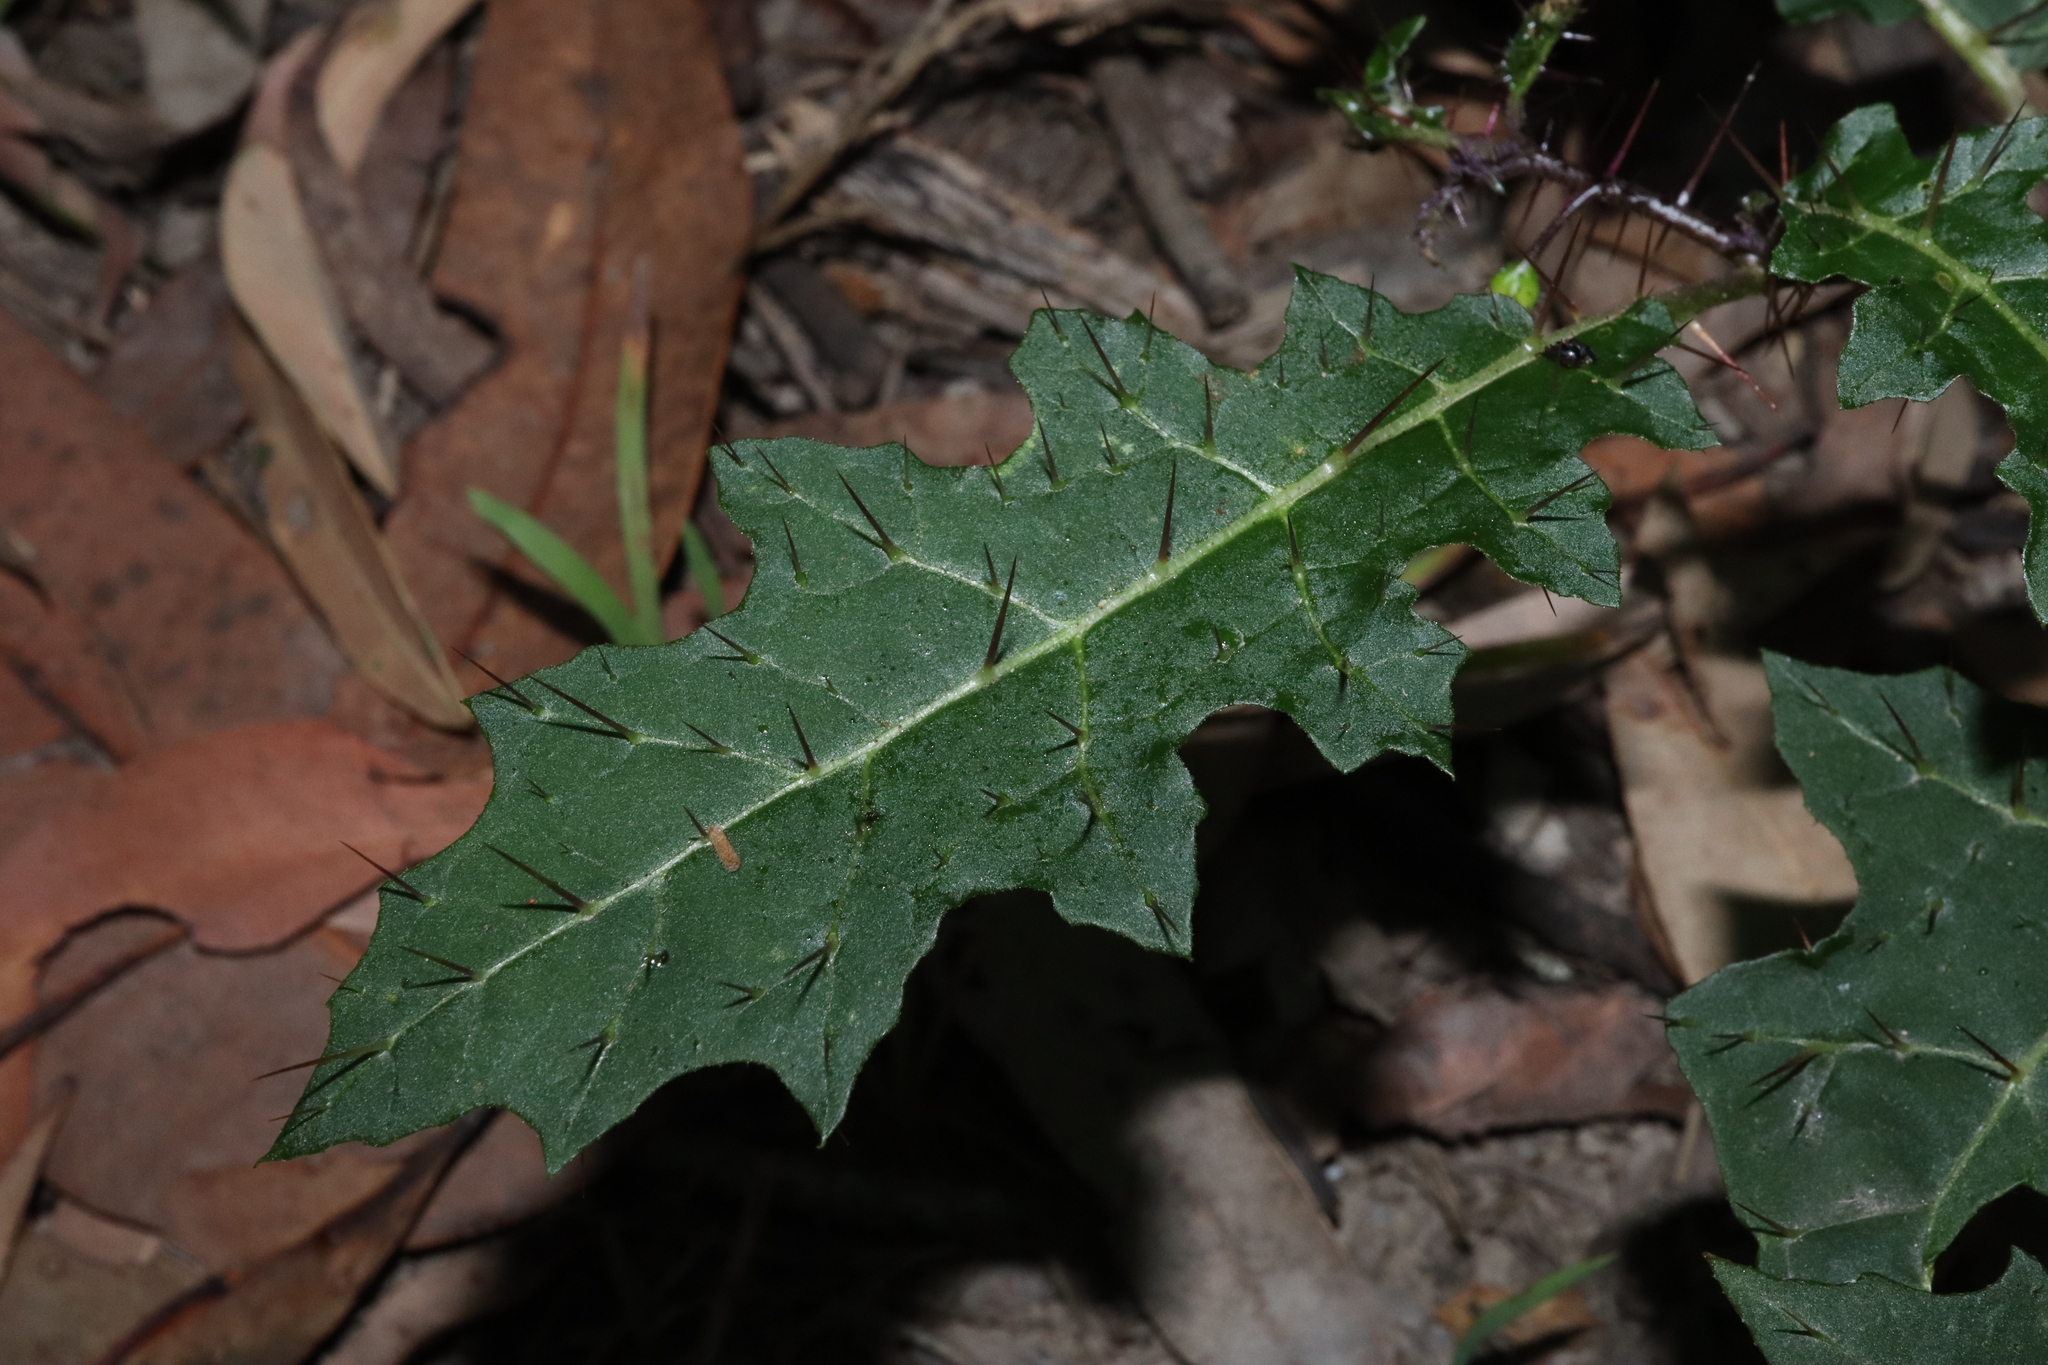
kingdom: Plantae
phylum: Tracheophyta
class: Magnoliopsida
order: Solanales
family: Solanaceae
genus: Solanum
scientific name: Solanum prinophyllum
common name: Forest nightshade
